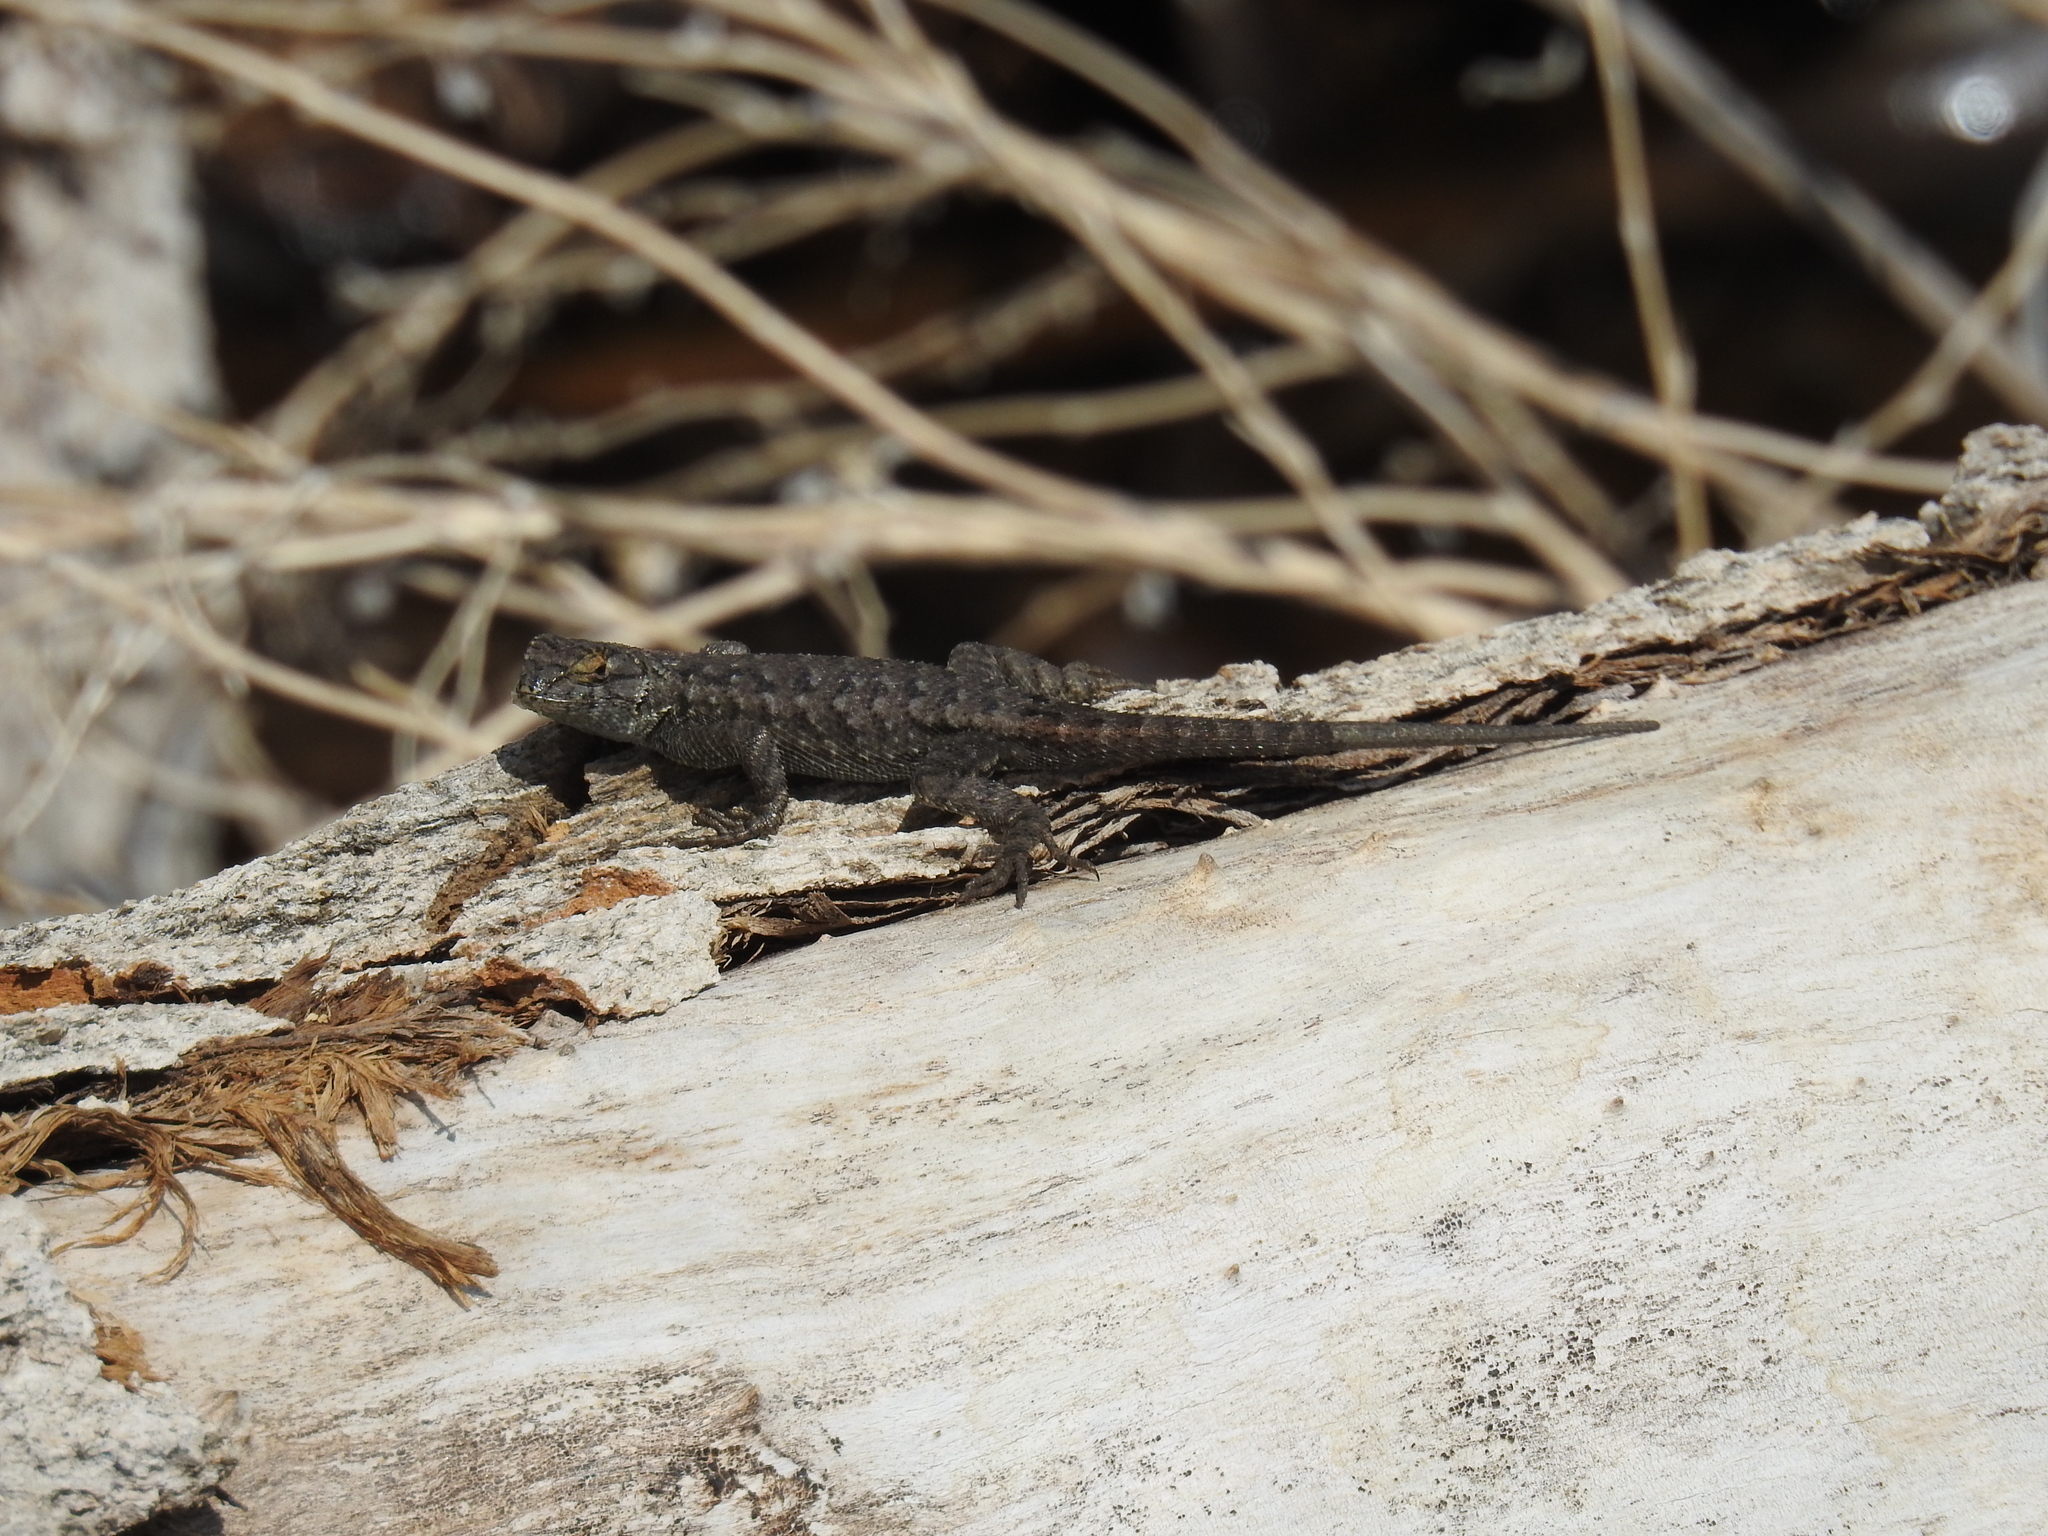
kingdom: Animalia
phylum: Chordata
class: Squamata
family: Phrynosomatidae
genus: Sceloporus
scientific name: Sceloporus occidentalis
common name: Western fence lizard
